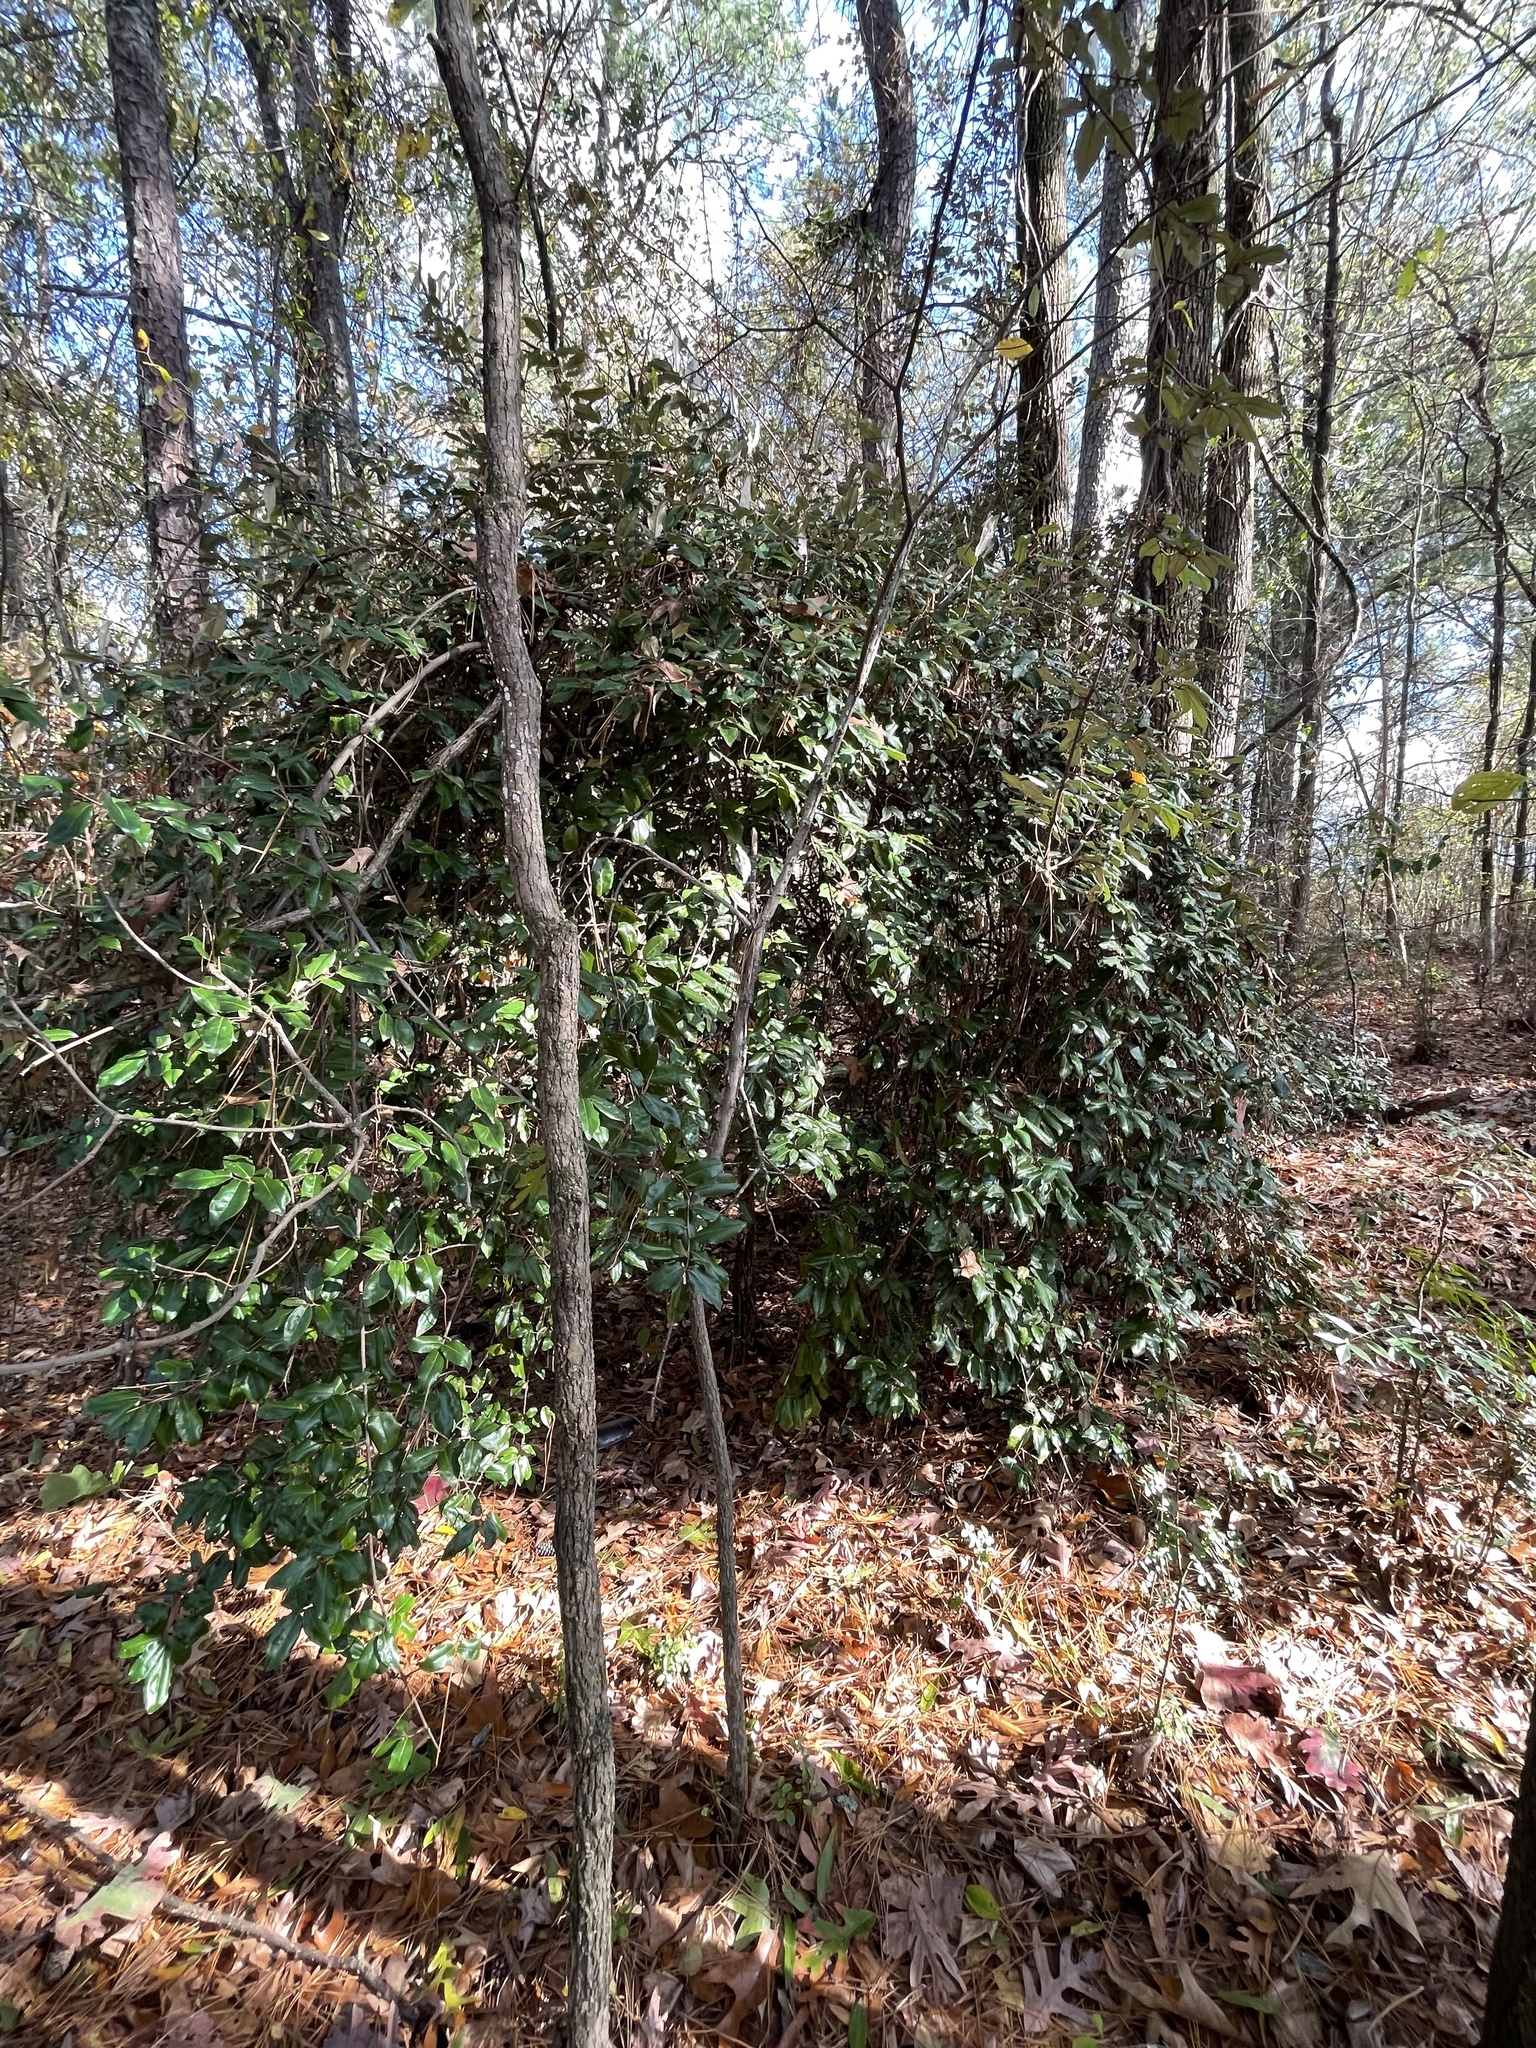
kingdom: Plantae
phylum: Tracheophyta
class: Magnoliopsida
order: Rosales
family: Elaeagnaceae
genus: Elaeagnus
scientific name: Elaeagnus pungens
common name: Spiny oleaster
